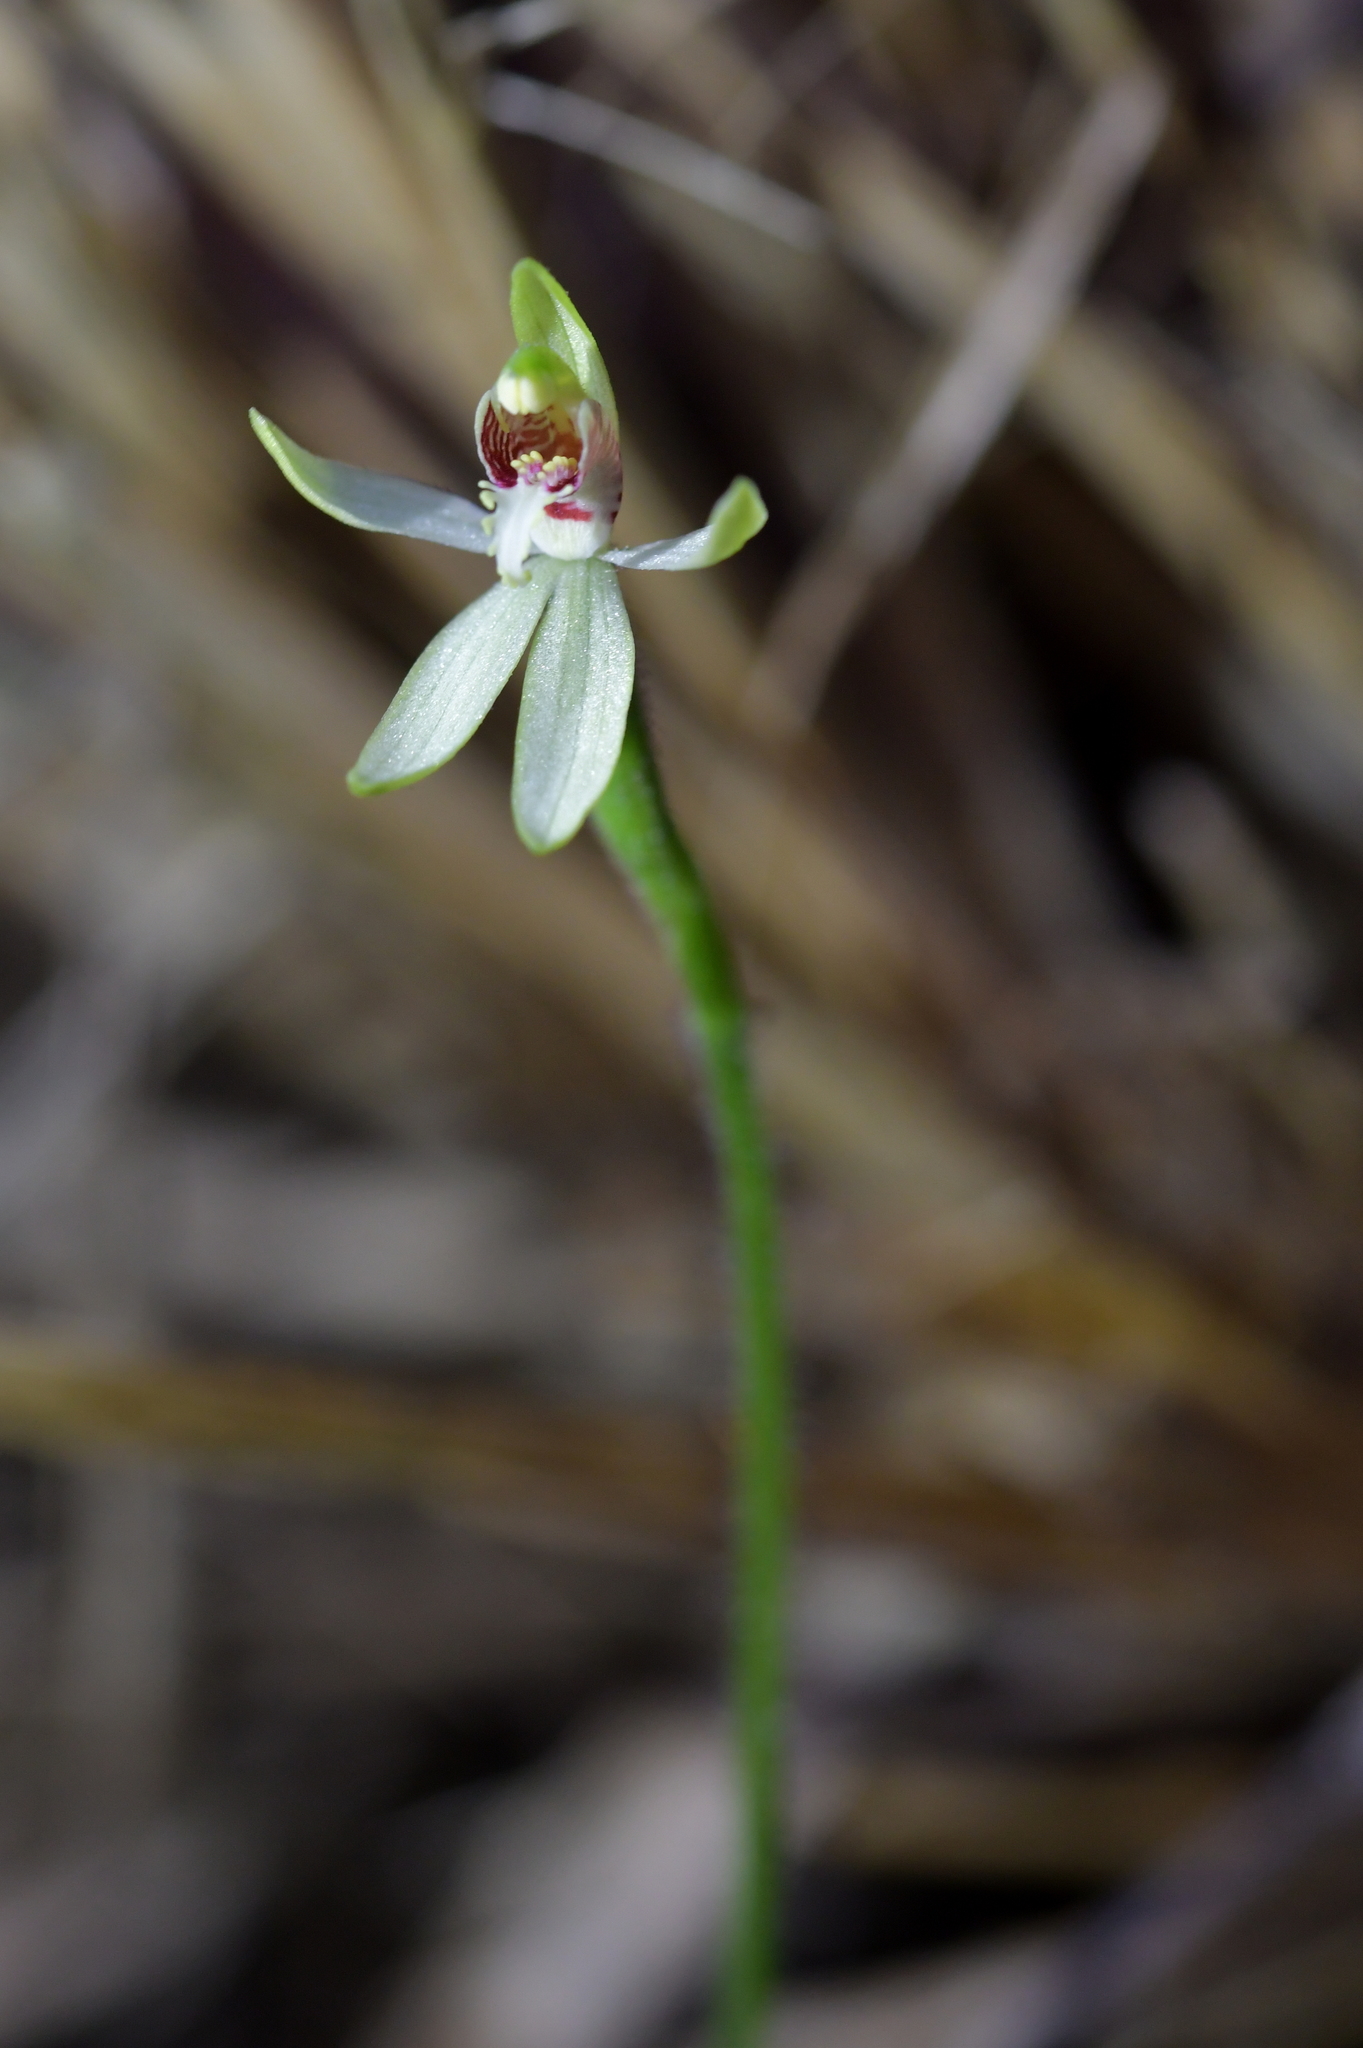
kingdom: Plantae
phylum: Tracheophyta
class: Liliopsida
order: Asparagales
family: Orchidaceae
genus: Caladenia
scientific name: Caladenia chlorostyla
